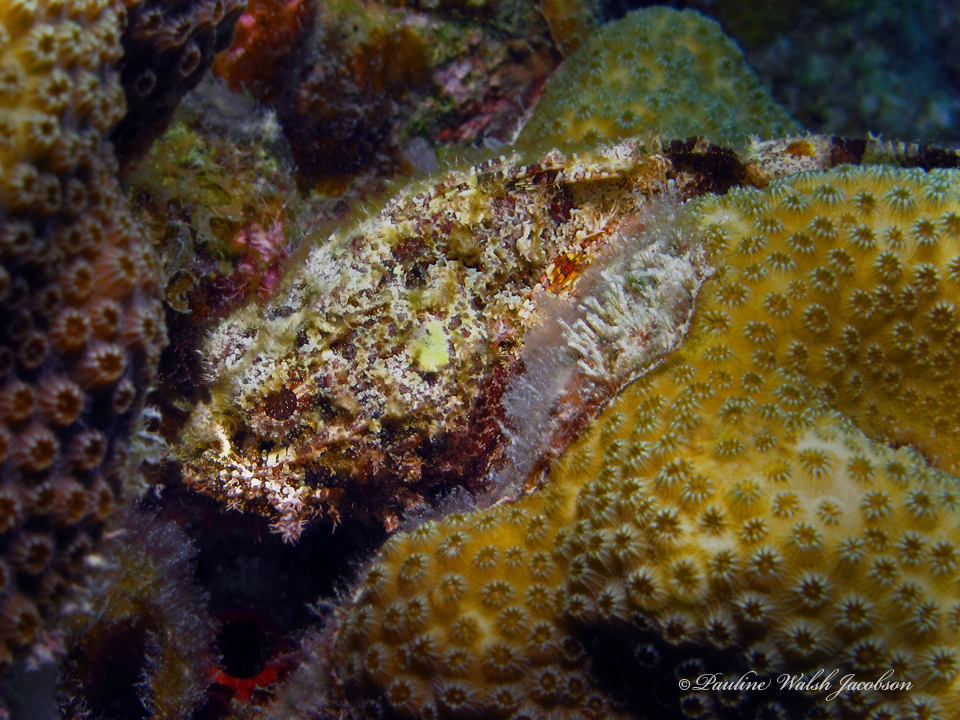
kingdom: Animalia
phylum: Chordata
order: Scorpaeniformes
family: Scorpaenidae
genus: Scorpaena
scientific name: Scorpaena plumieri
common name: Spotted scorpionfish
